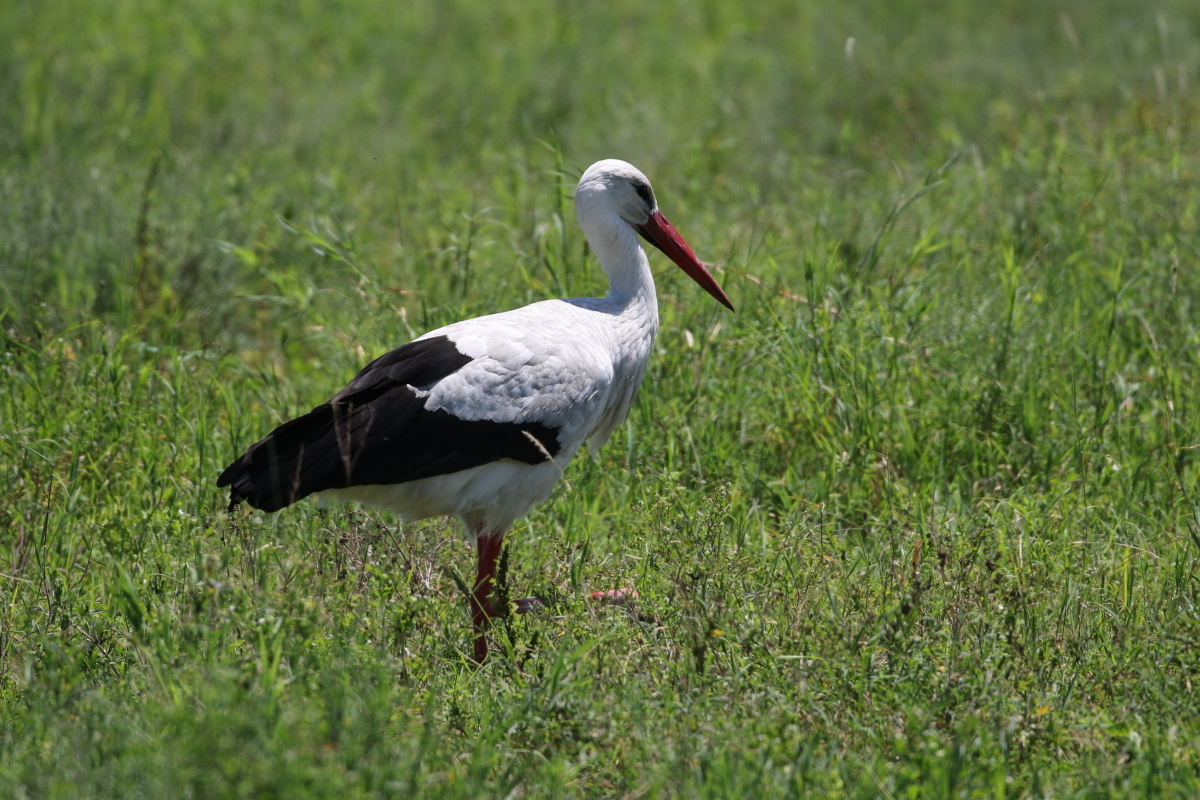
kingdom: Animalia
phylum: Chordata
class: Aves
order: Ciconiiformes
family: Ciconiidae
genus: Ciconia
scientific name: Ciconia ciconia
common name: White stork
